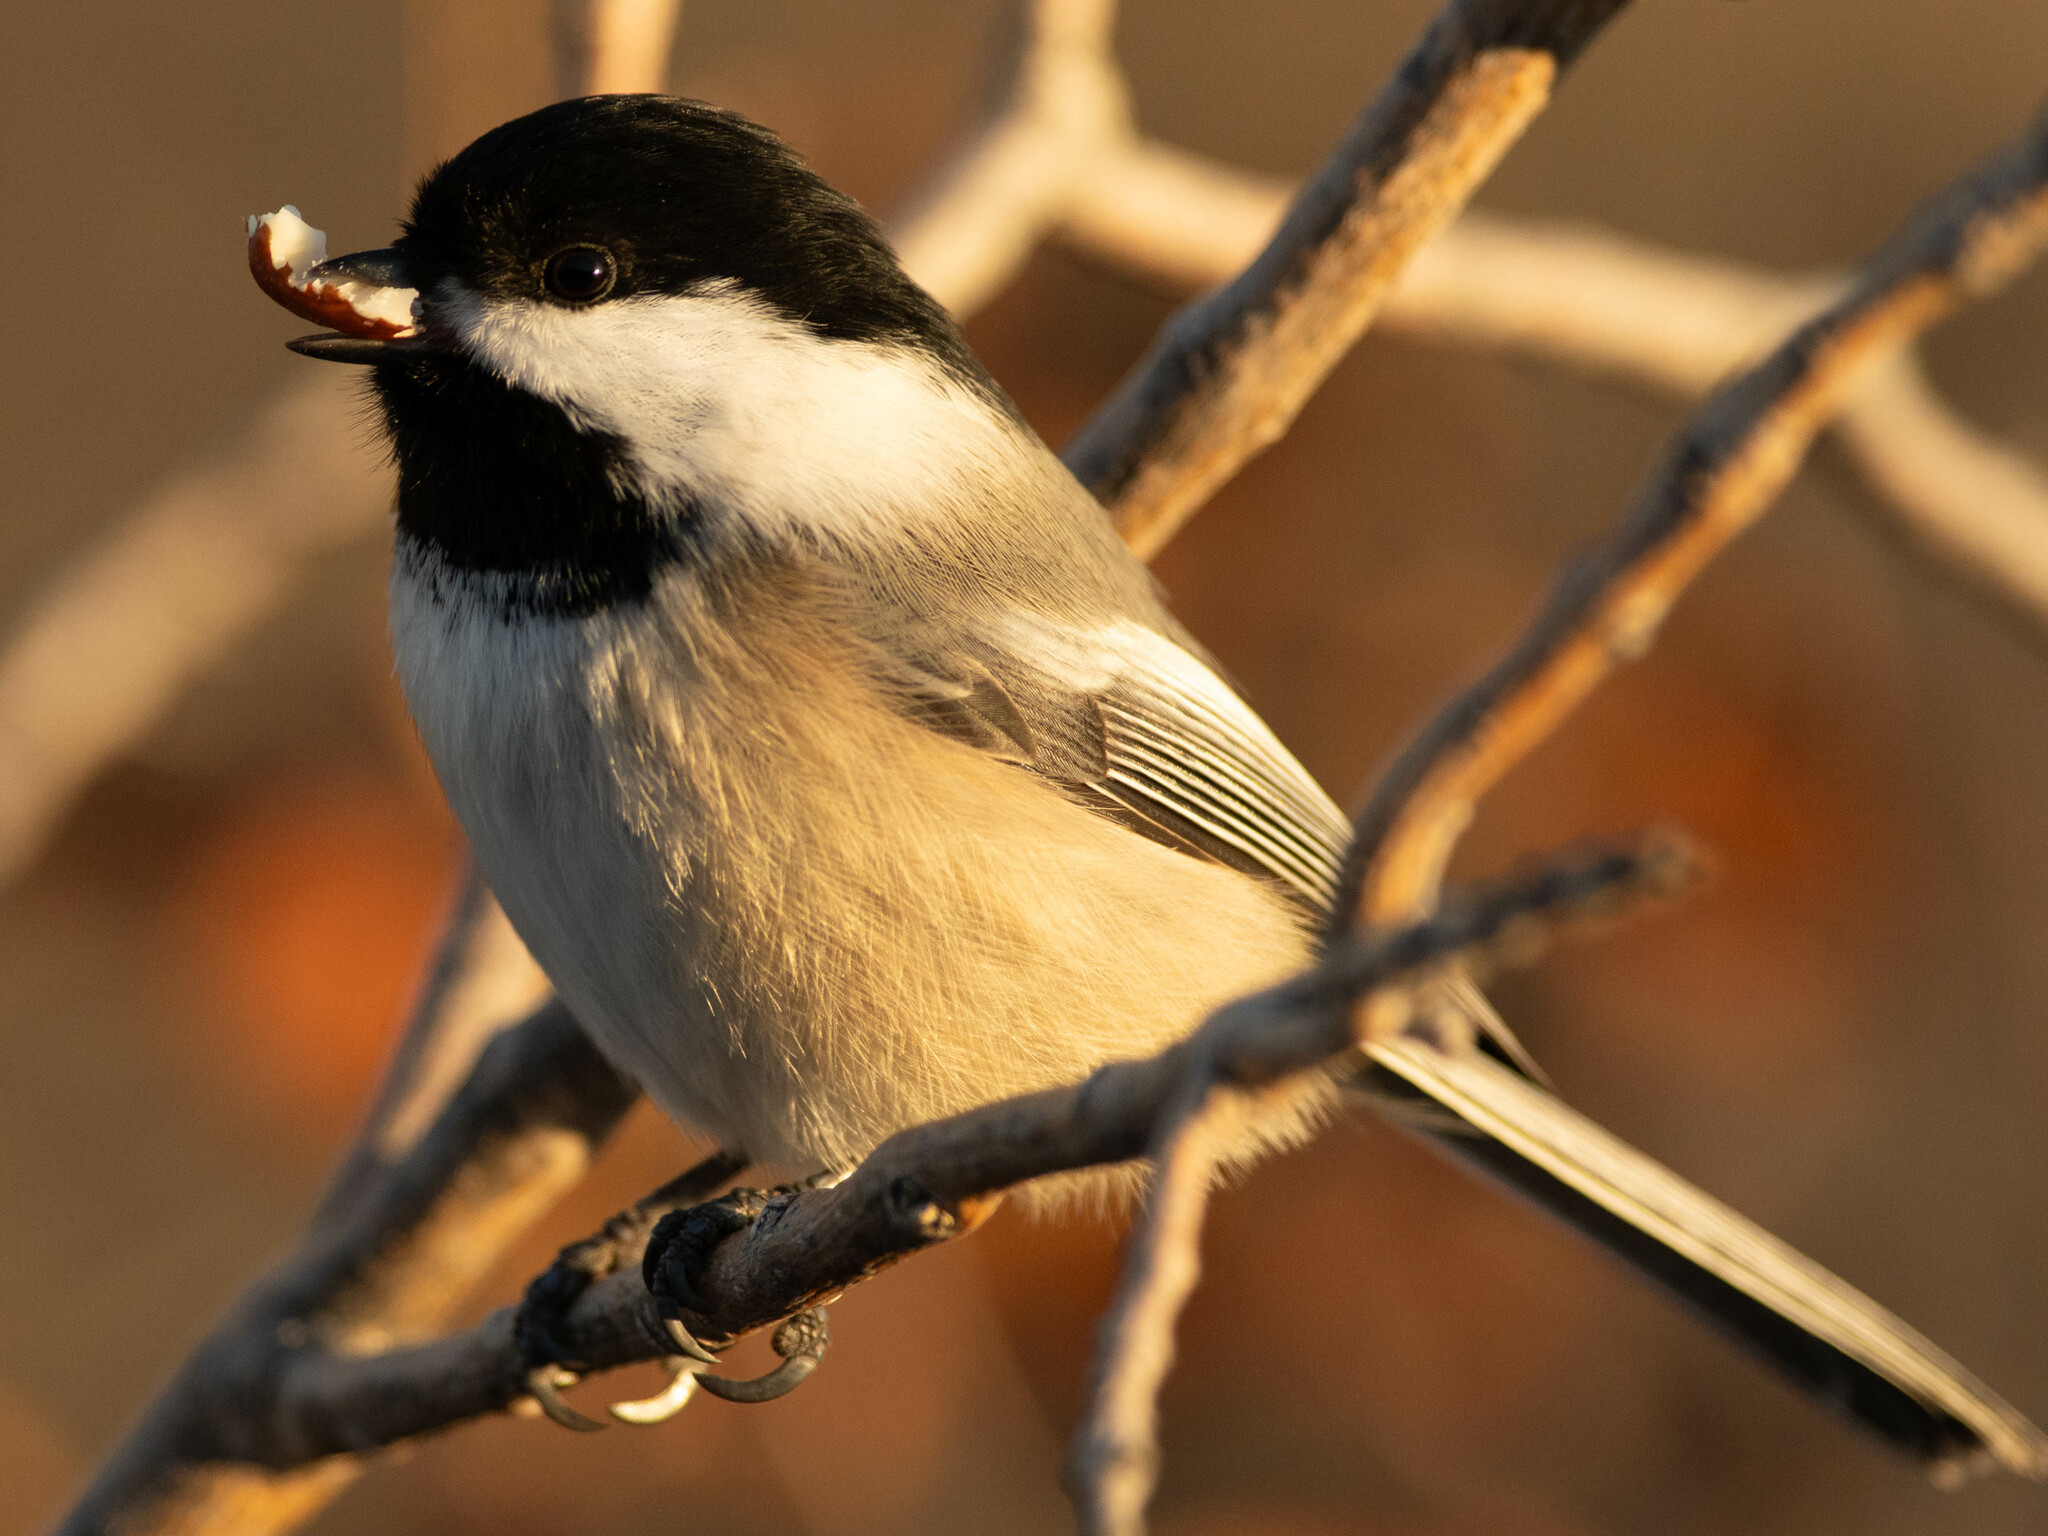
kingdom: Animalia
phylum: Chordata
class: Aves
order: Passeriformes
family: Paridae
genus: Poecile
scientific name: Poecile atricapillus
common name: Black-capped chickadee
